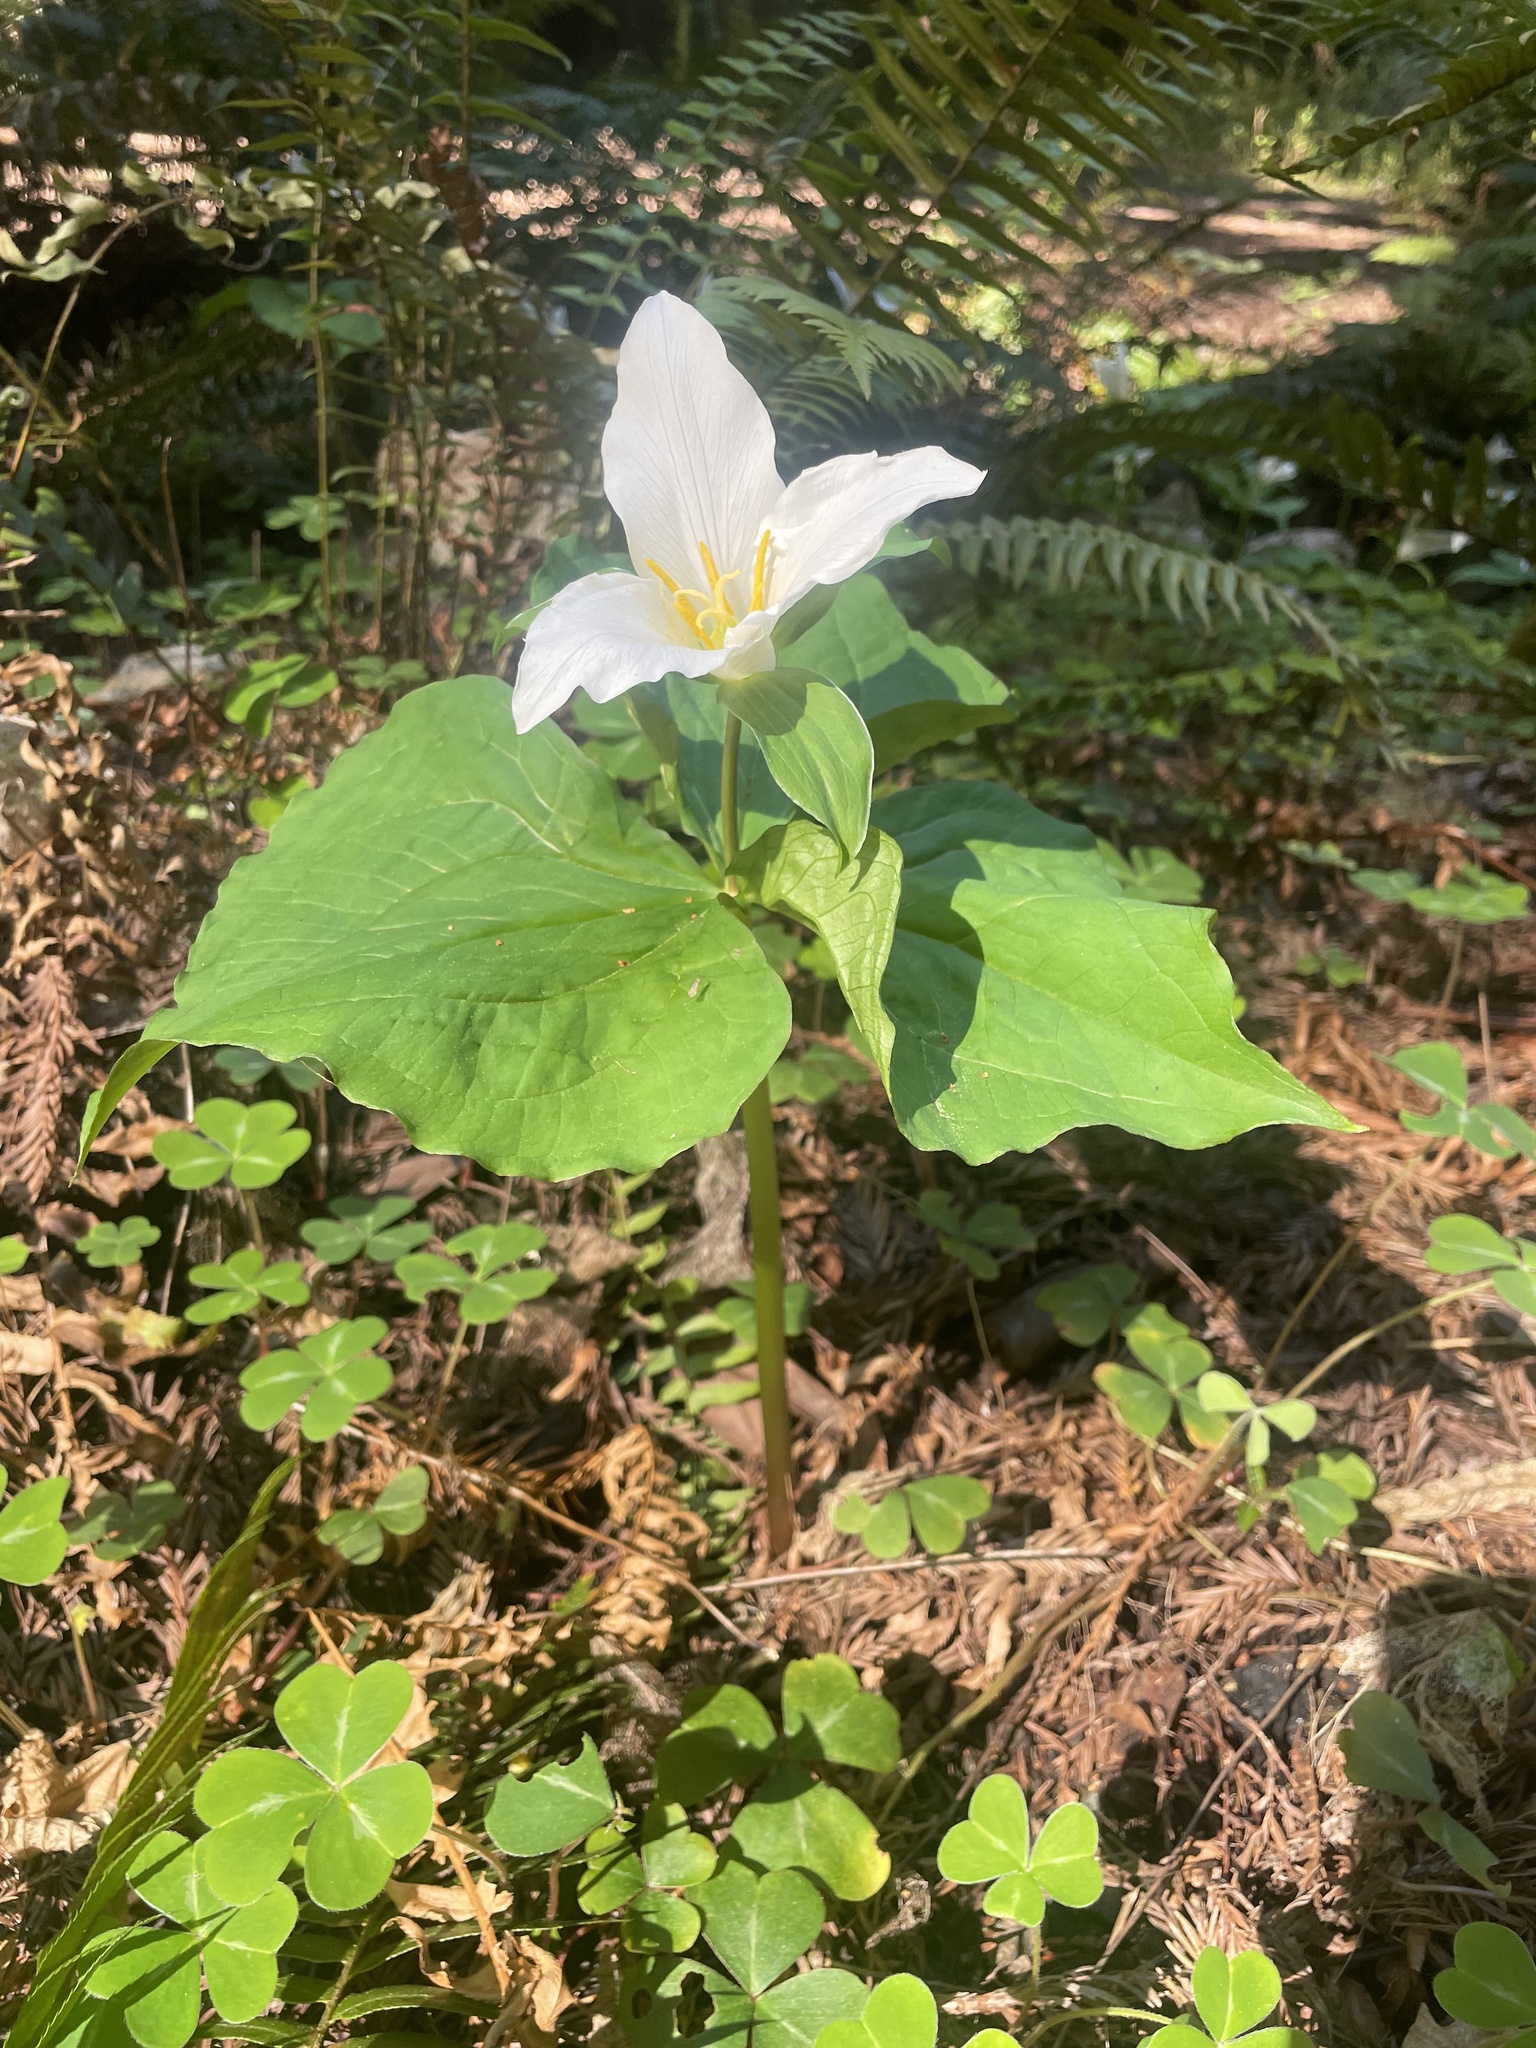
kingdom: Plantae
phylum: Tracheophyta
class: Liliopsida
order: Liliales
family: Melanthiaceae
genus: Trillium
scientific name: Trillium ovatum
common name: Pacific trillium
